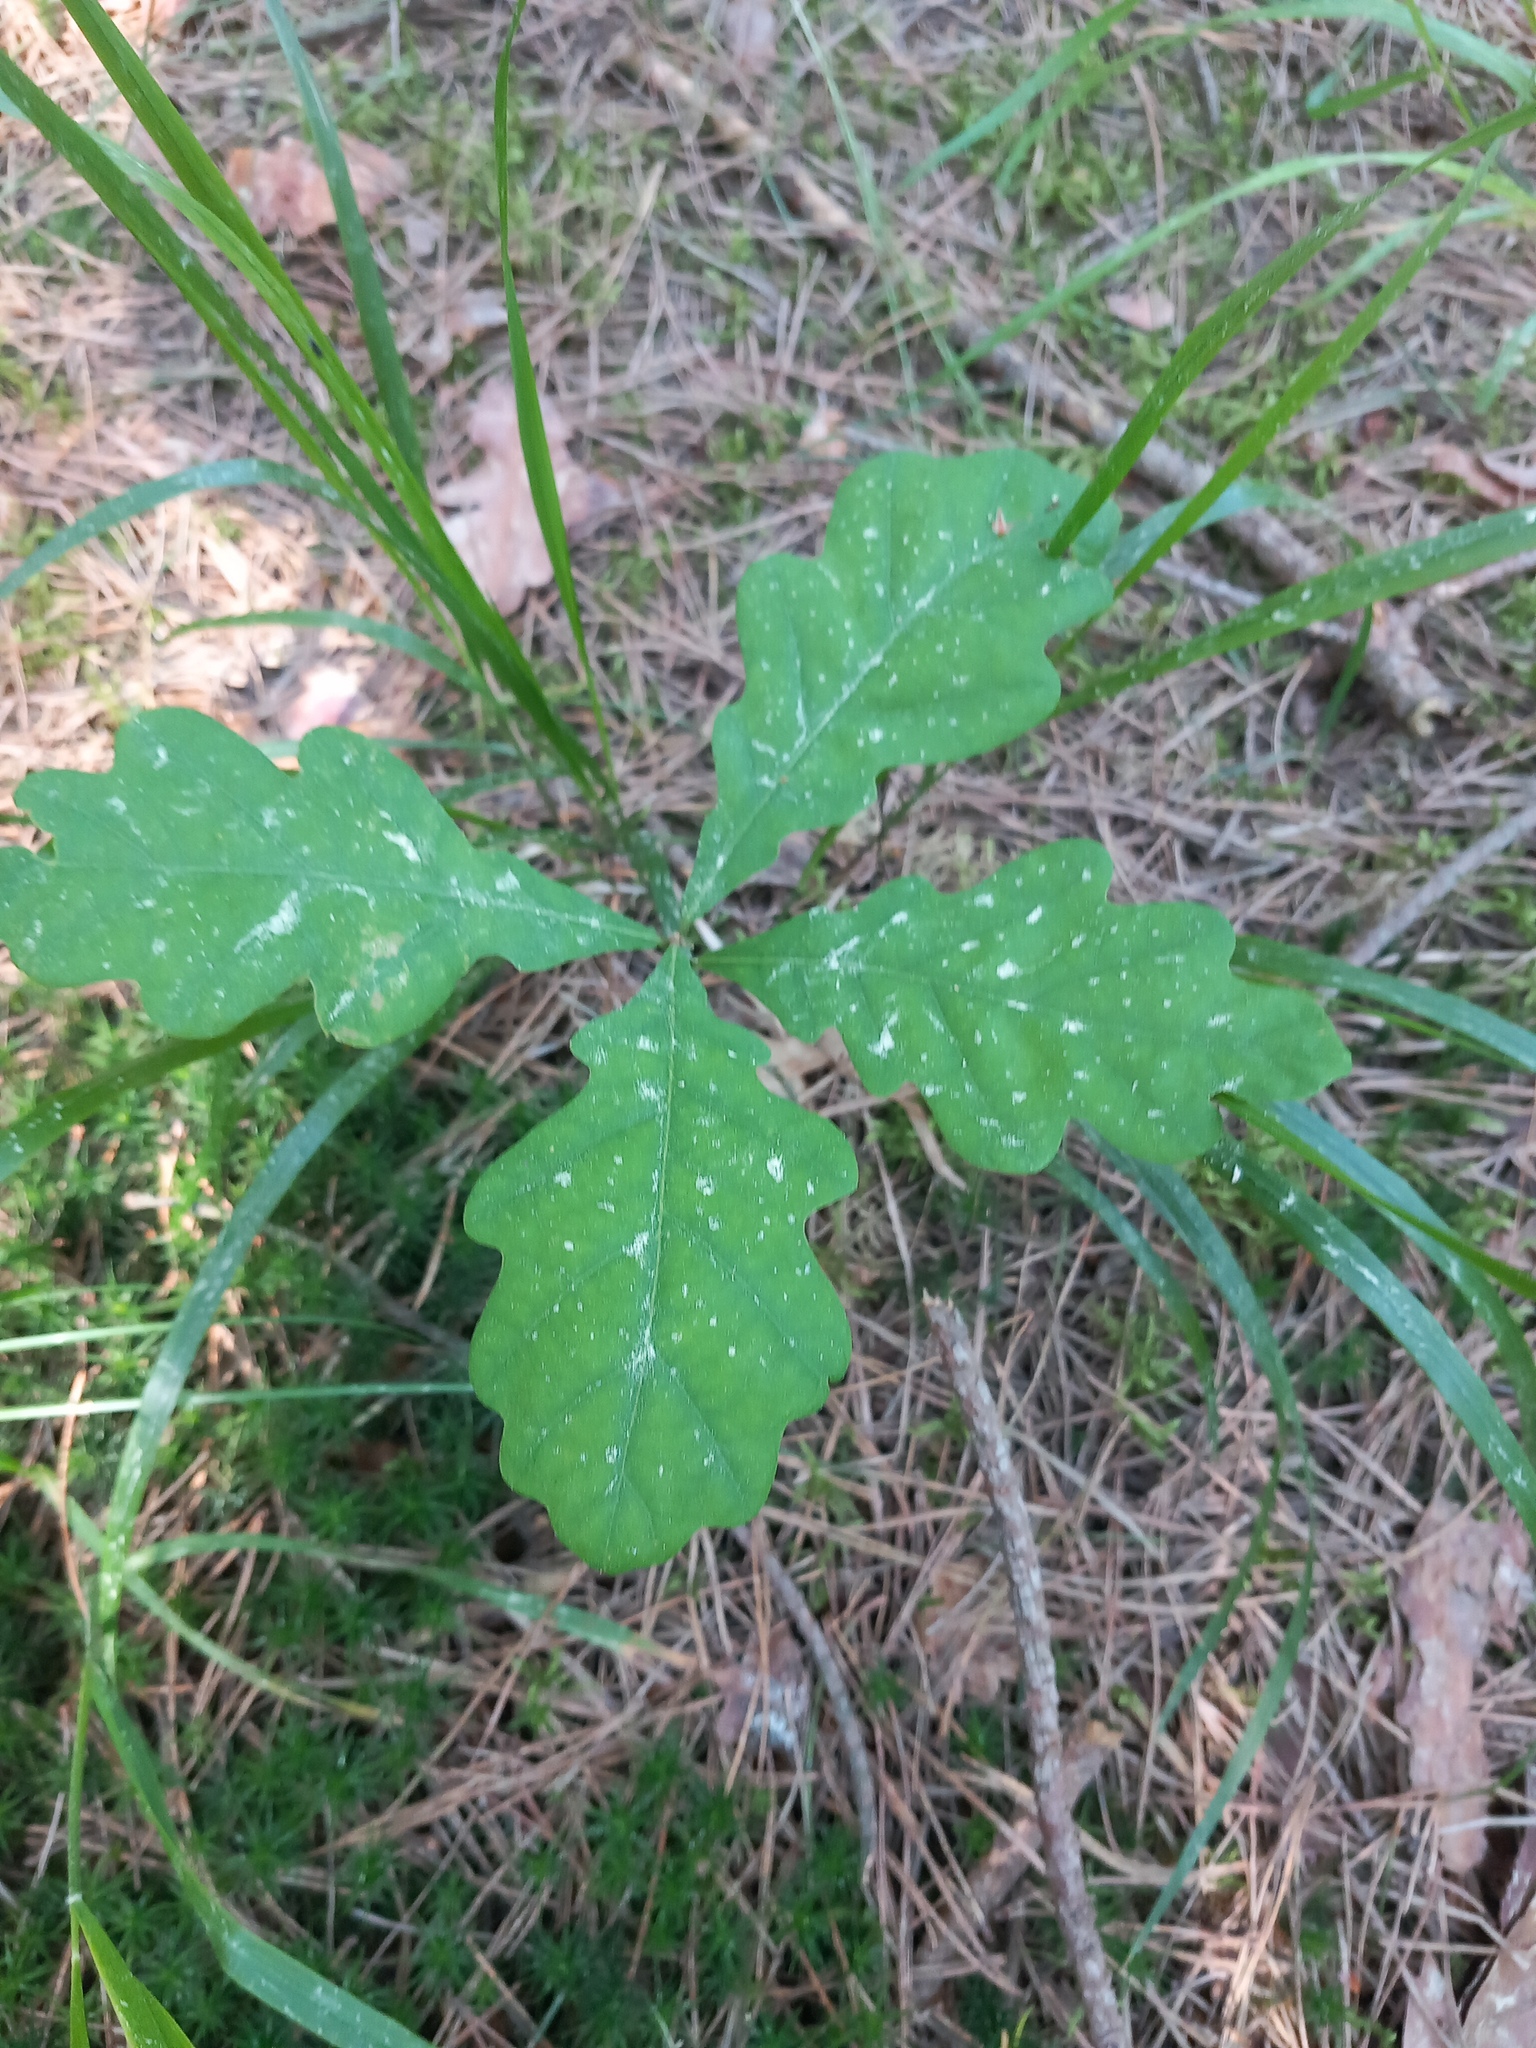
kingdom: Plantae
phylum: Tracheophyta
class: Magnoliopsida
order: Fagales
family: Fagaceae
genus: Quercus
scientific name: Quercus petraea
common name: Sessile oak
